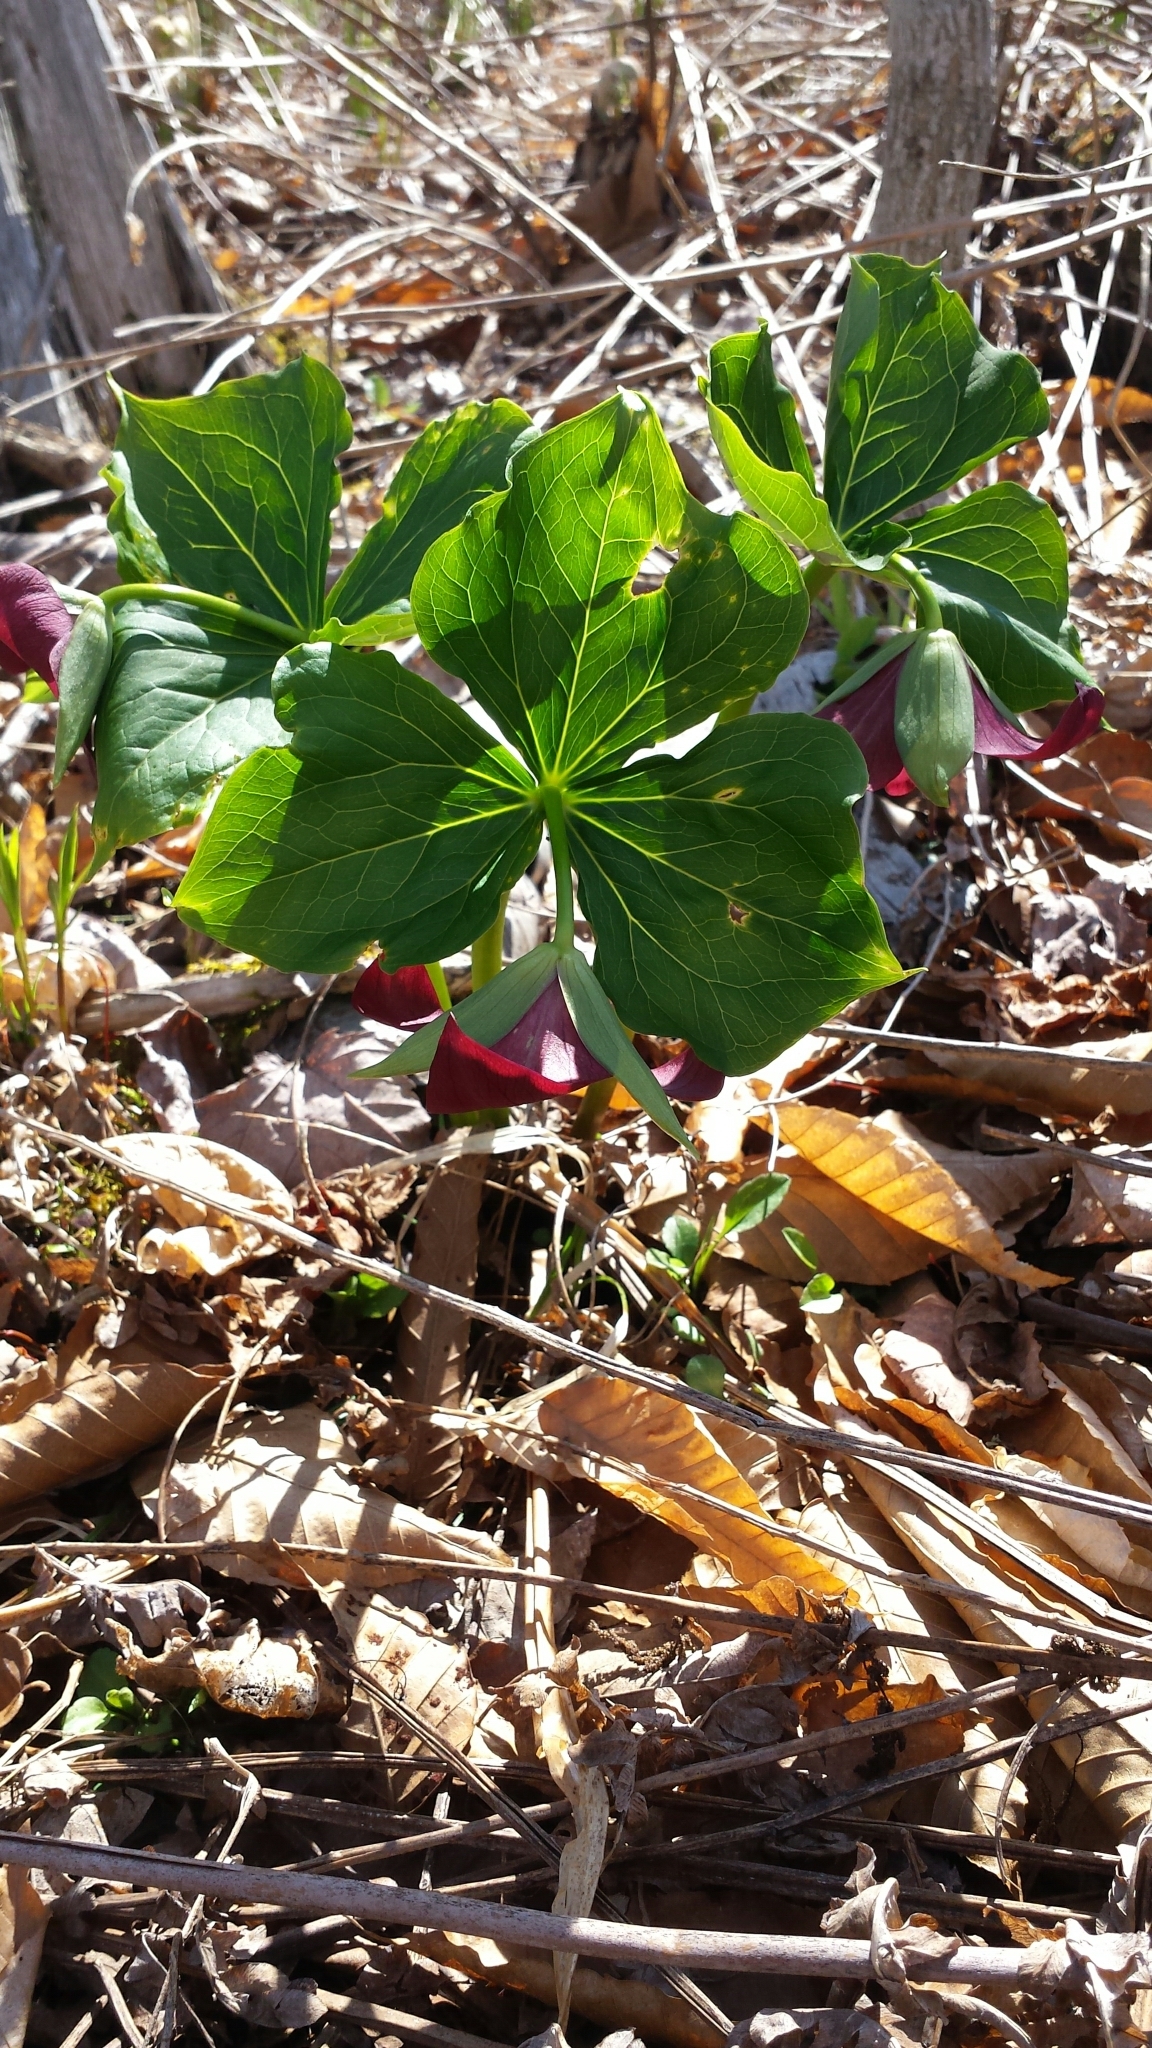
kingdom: Plantae
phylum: Tracheophyta
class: Liliopsida
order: Liliales
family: Melanthiaceae
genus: Trillium
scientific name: Trillium erectum
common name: Purple trillium
